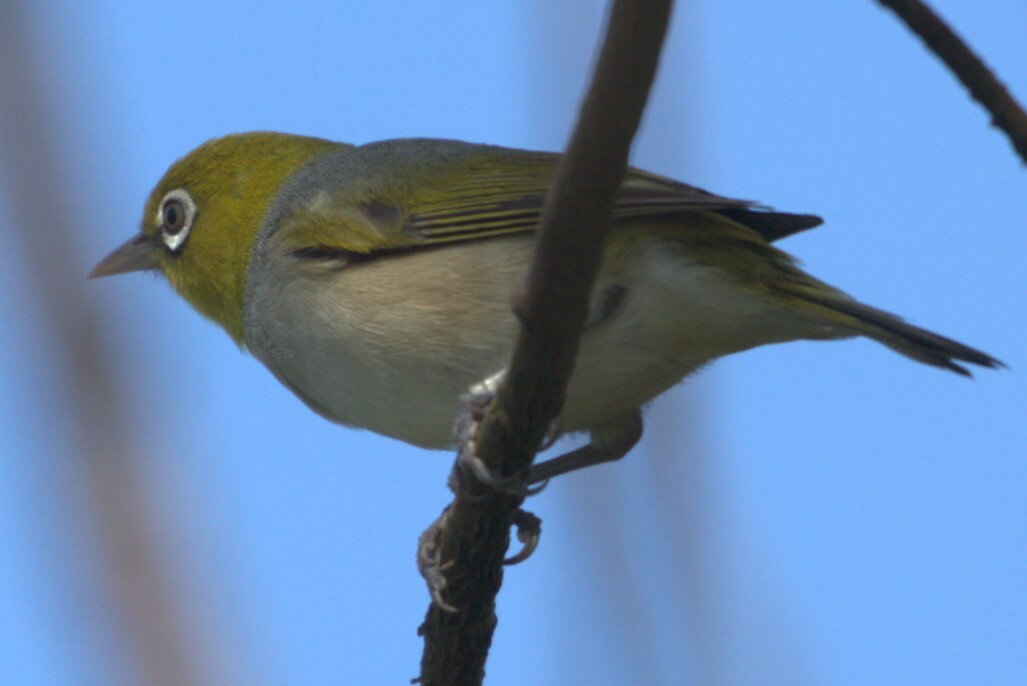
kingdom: Animalia
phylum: Chordata
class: Aves
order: Passeriformes
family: Zosteropidae
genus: Zosterops
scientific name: Zosterops lateralis
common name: Silvereye
